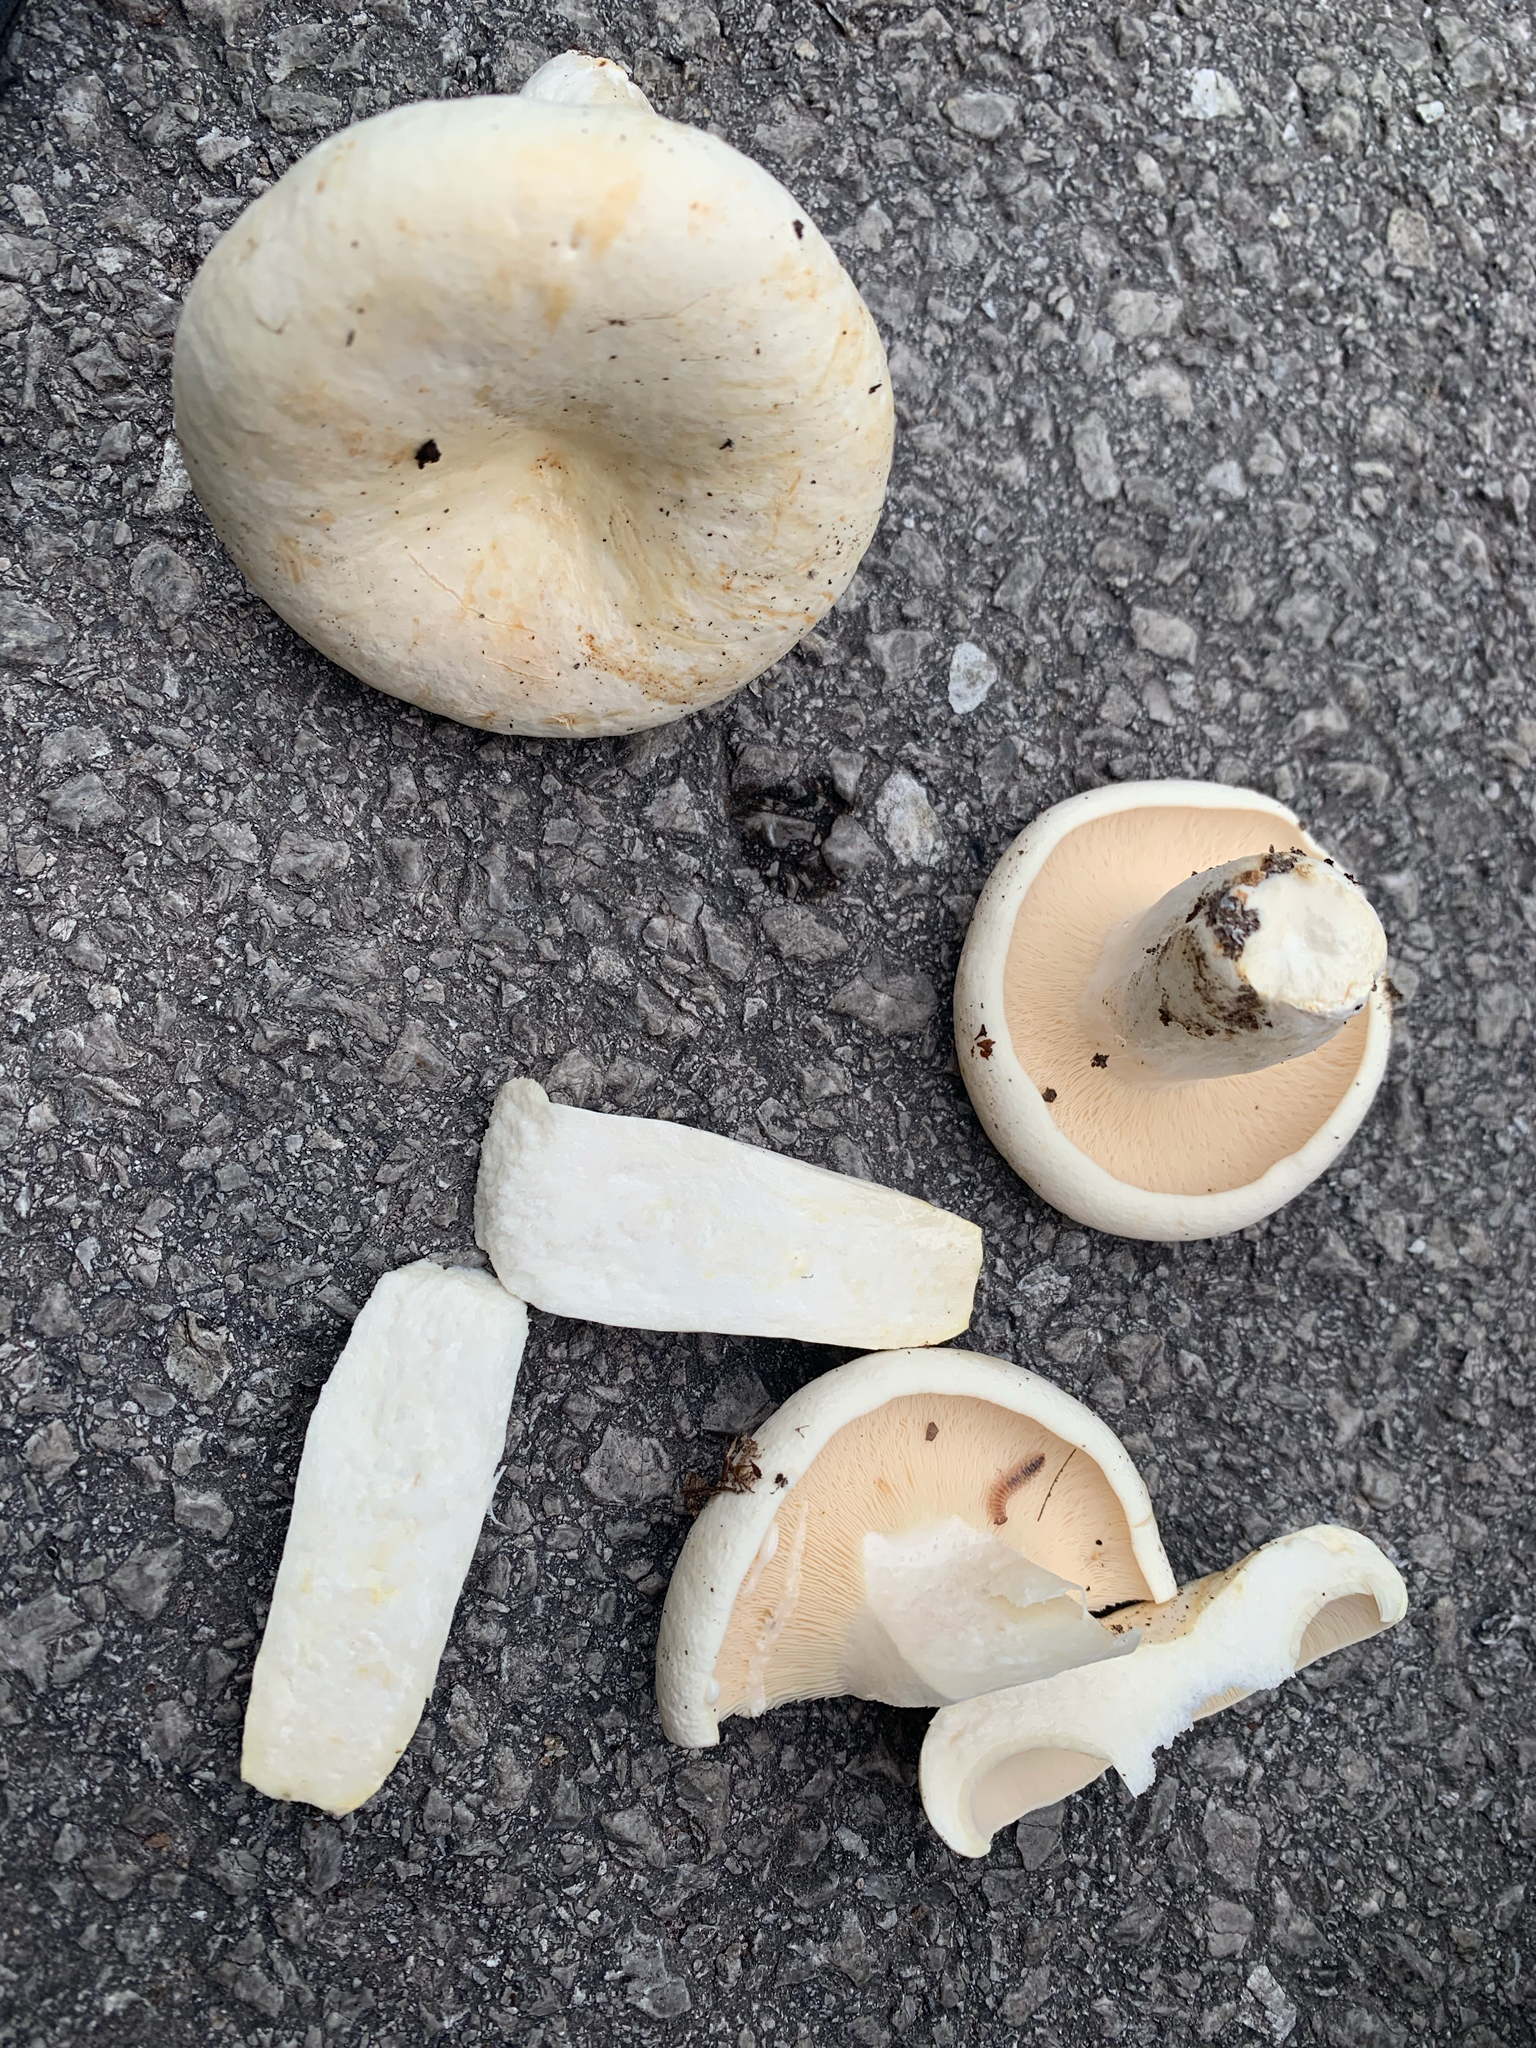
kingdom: Fungi
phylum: Basidiomycota
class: Agaricomycetes
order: Russulales
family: Russulaceae
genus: Lactifluus
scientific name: Lactifluus piperatus
